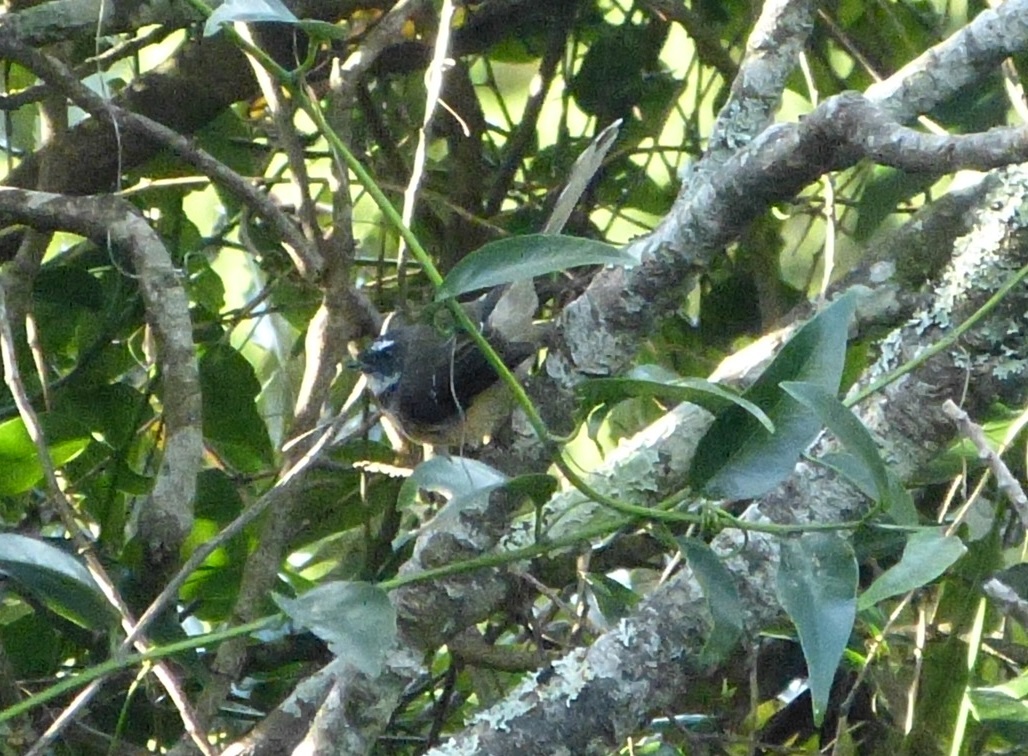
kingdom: Animalia
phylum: Chordata
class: Aves
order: Passeriformes
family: Rhipiduridae
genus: Rhipidura
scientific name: Rhipidura fuliginosa
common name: New zealand fantail
